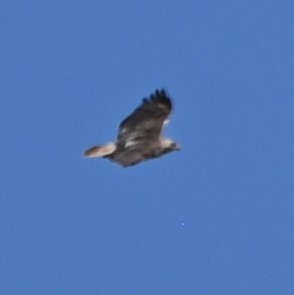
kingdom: Animalia
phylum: Chordata
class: Aves
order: Accipitriformes
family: Accipitridae
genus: Buteo
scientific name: Buteo jamaicensis
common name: Red-tailed hawk
